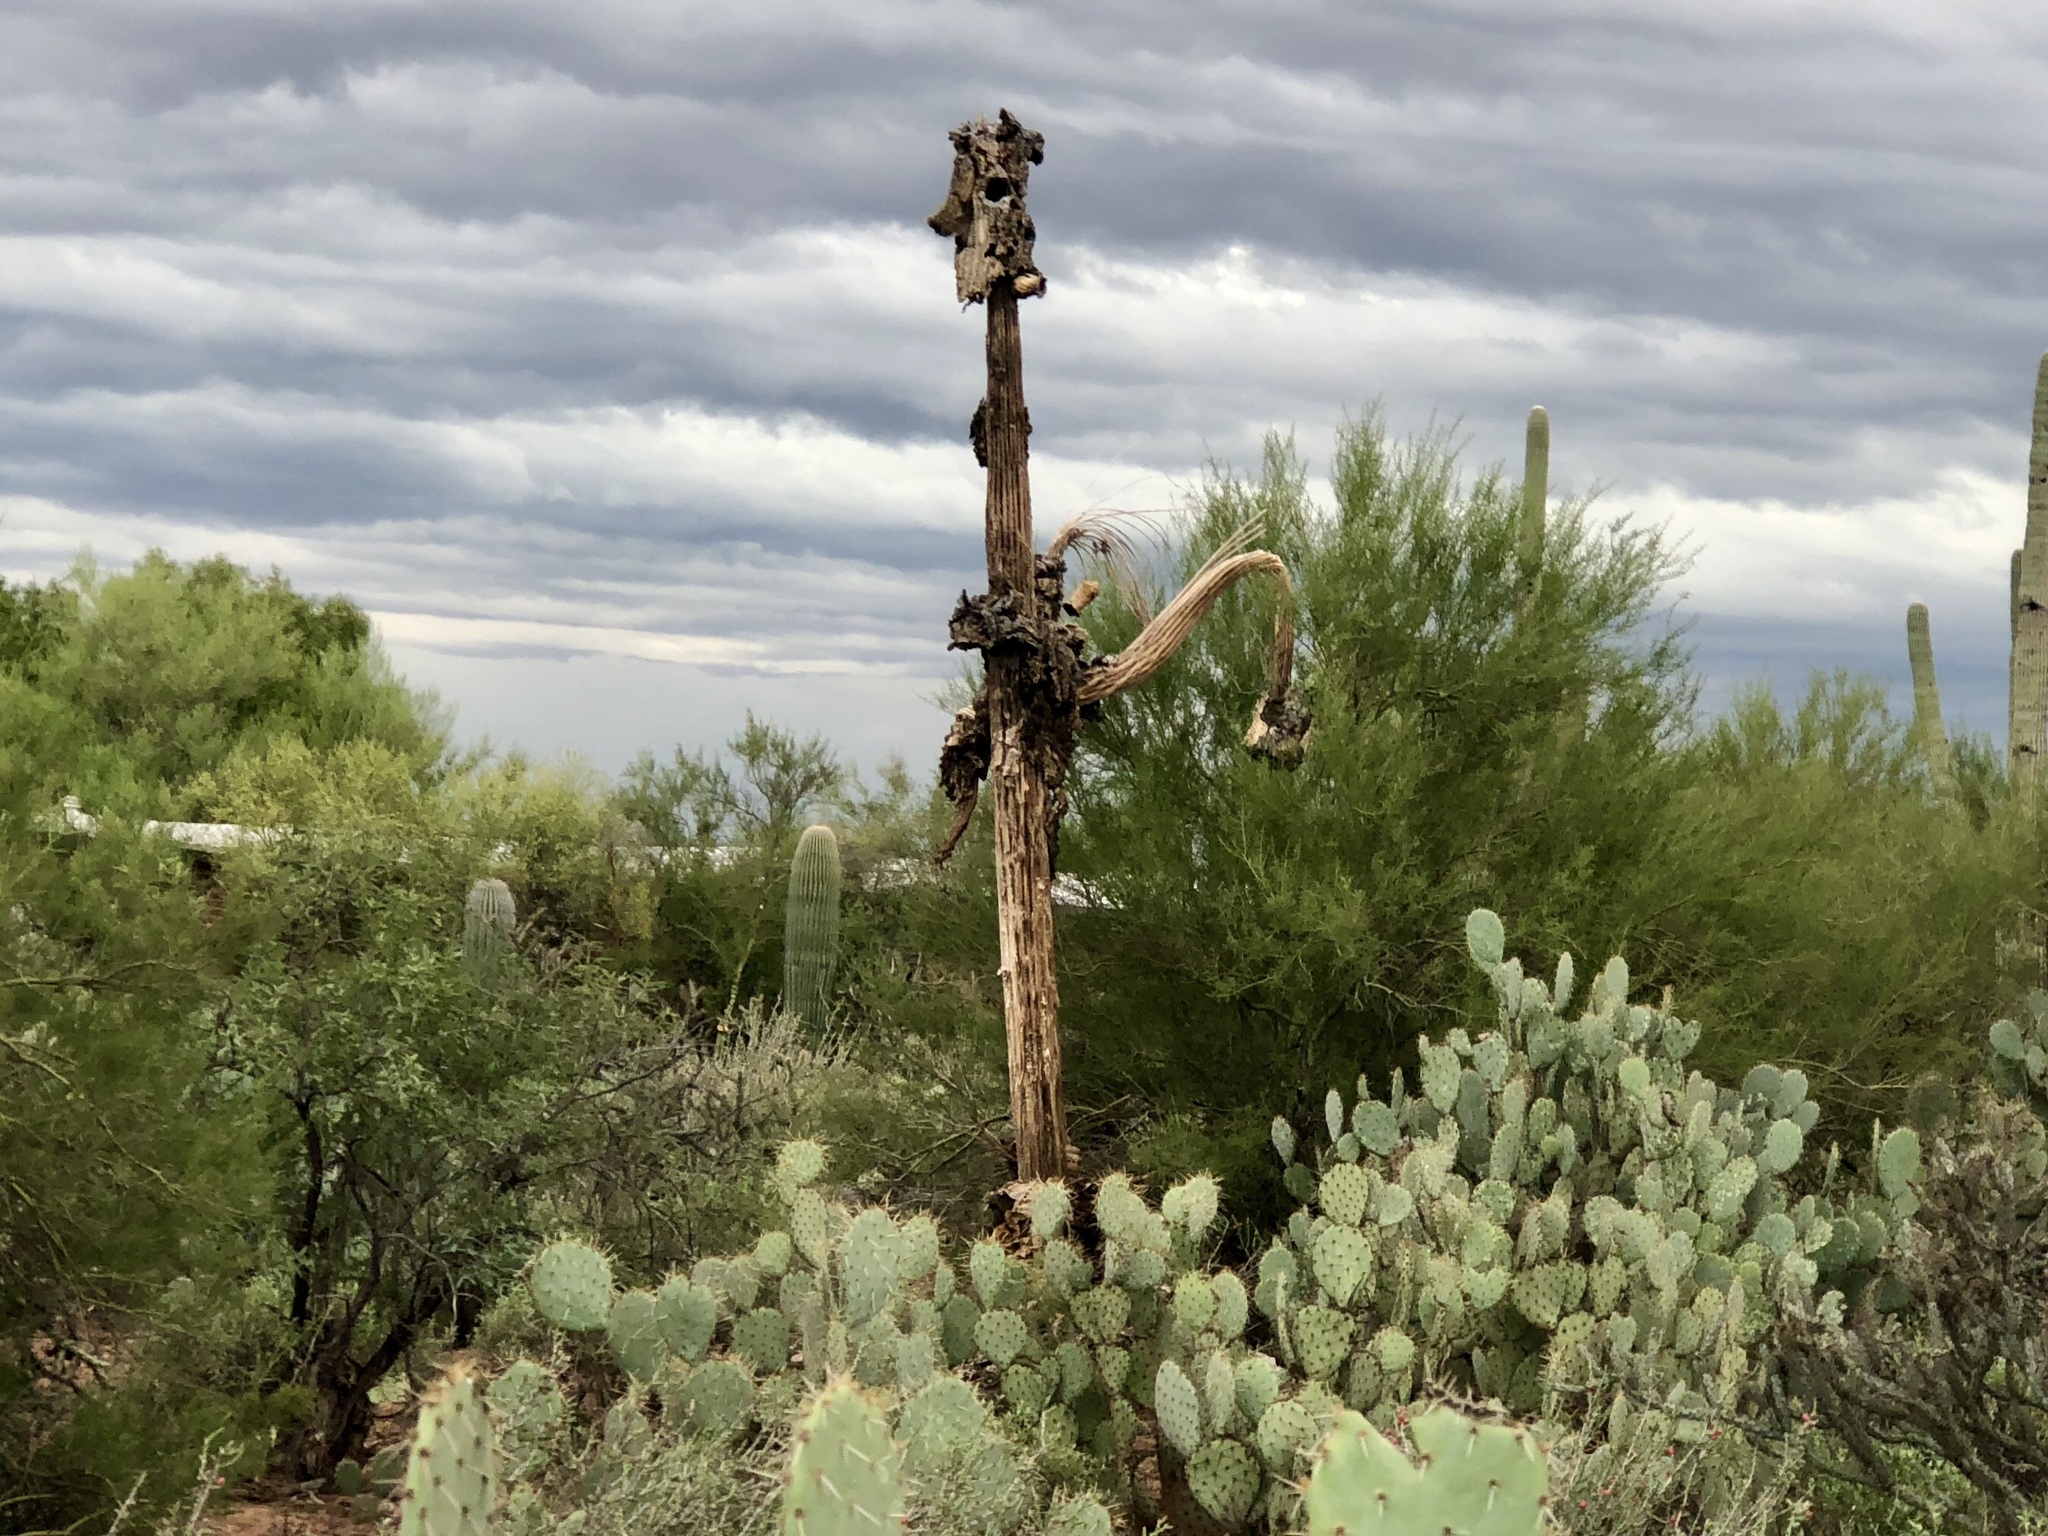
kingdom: Plantae
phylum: Tracheophyta
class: Magnoliopsida
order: Caryophyllales
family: Cactaceae
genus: Carnegiea
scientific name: Carnegiea gigantea
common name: Saguaro
